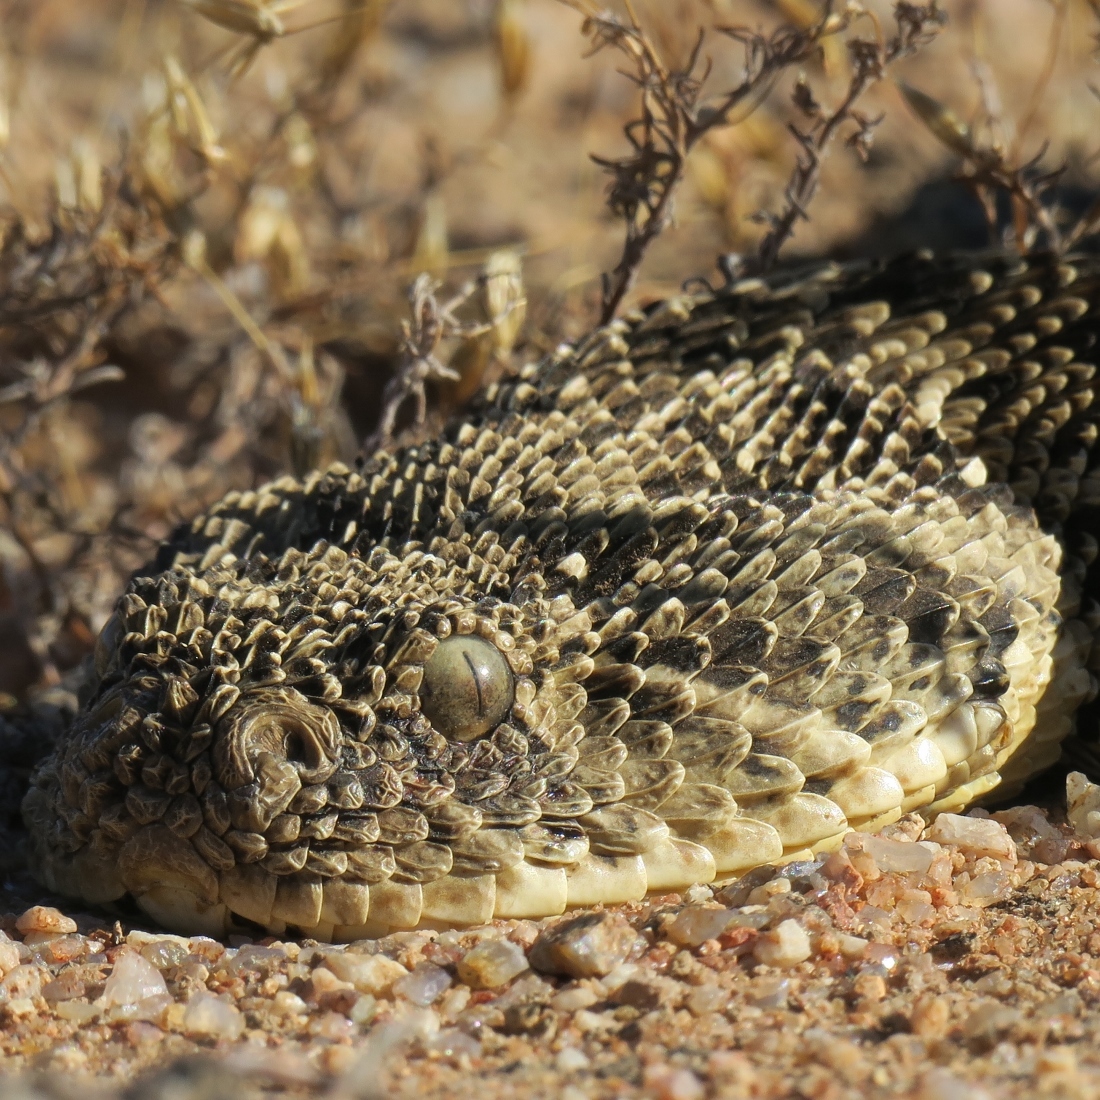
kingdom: Animalia
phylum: Chordata
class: Squamata
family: Viperidae
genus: Bitis
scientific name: Bitis arietans
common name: Puff adder
